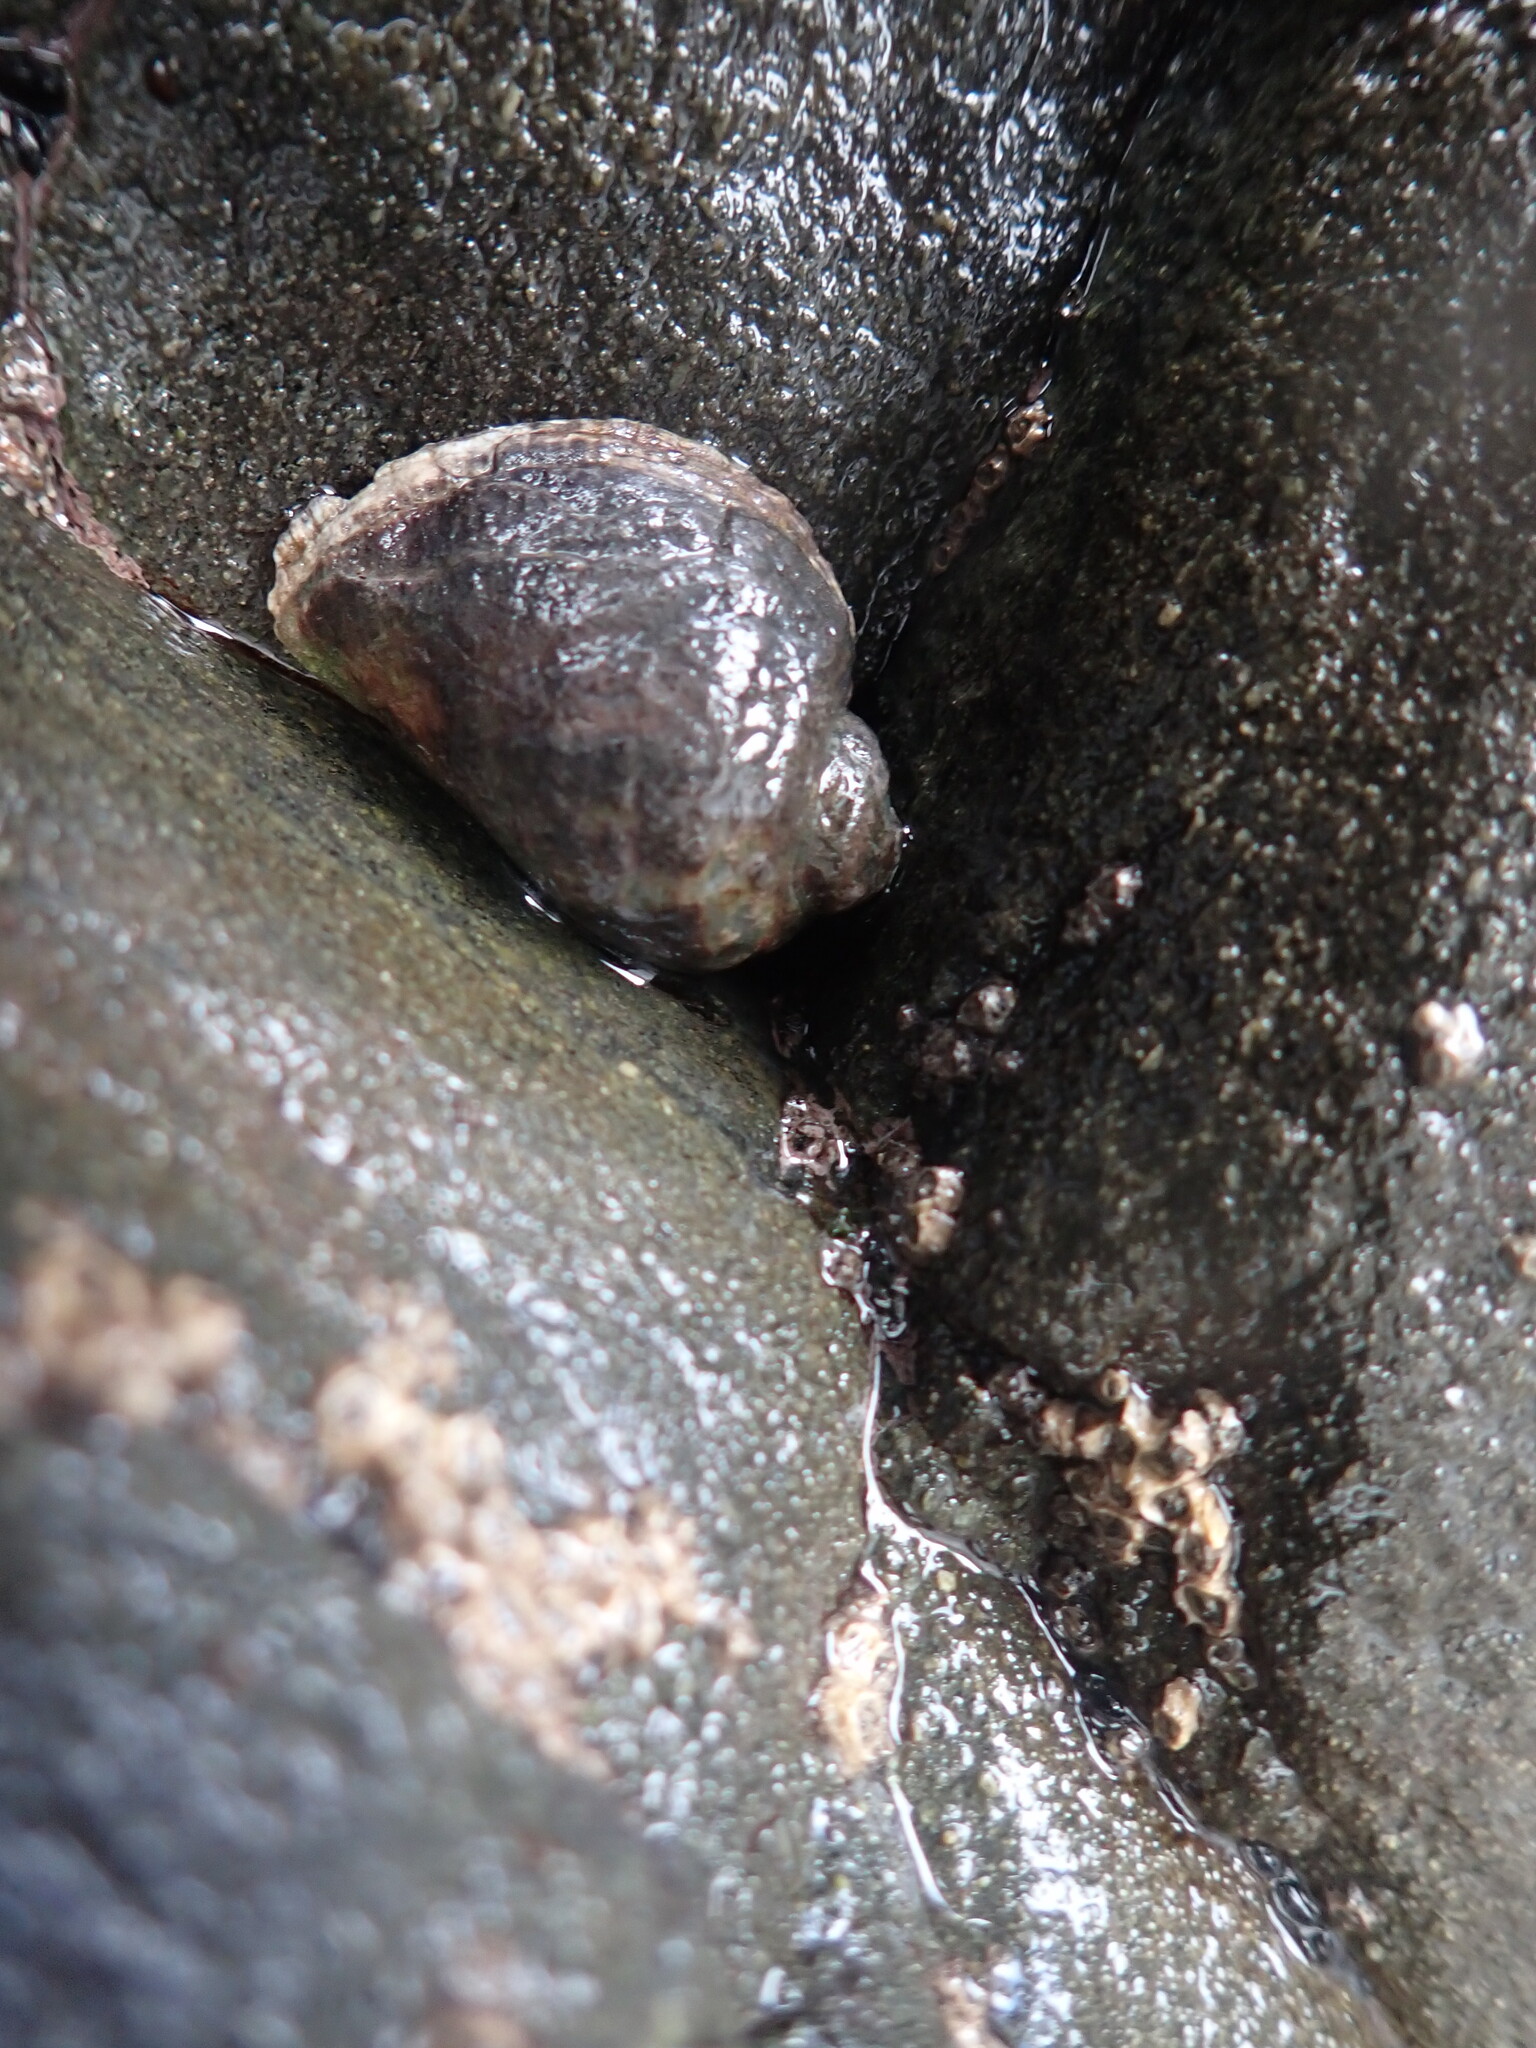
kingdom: Animalia
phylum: Mollusca
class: Gastropoda
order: Neogastropoda
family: Muricidae
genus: Haustrum
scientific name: Haustrum haustorium
